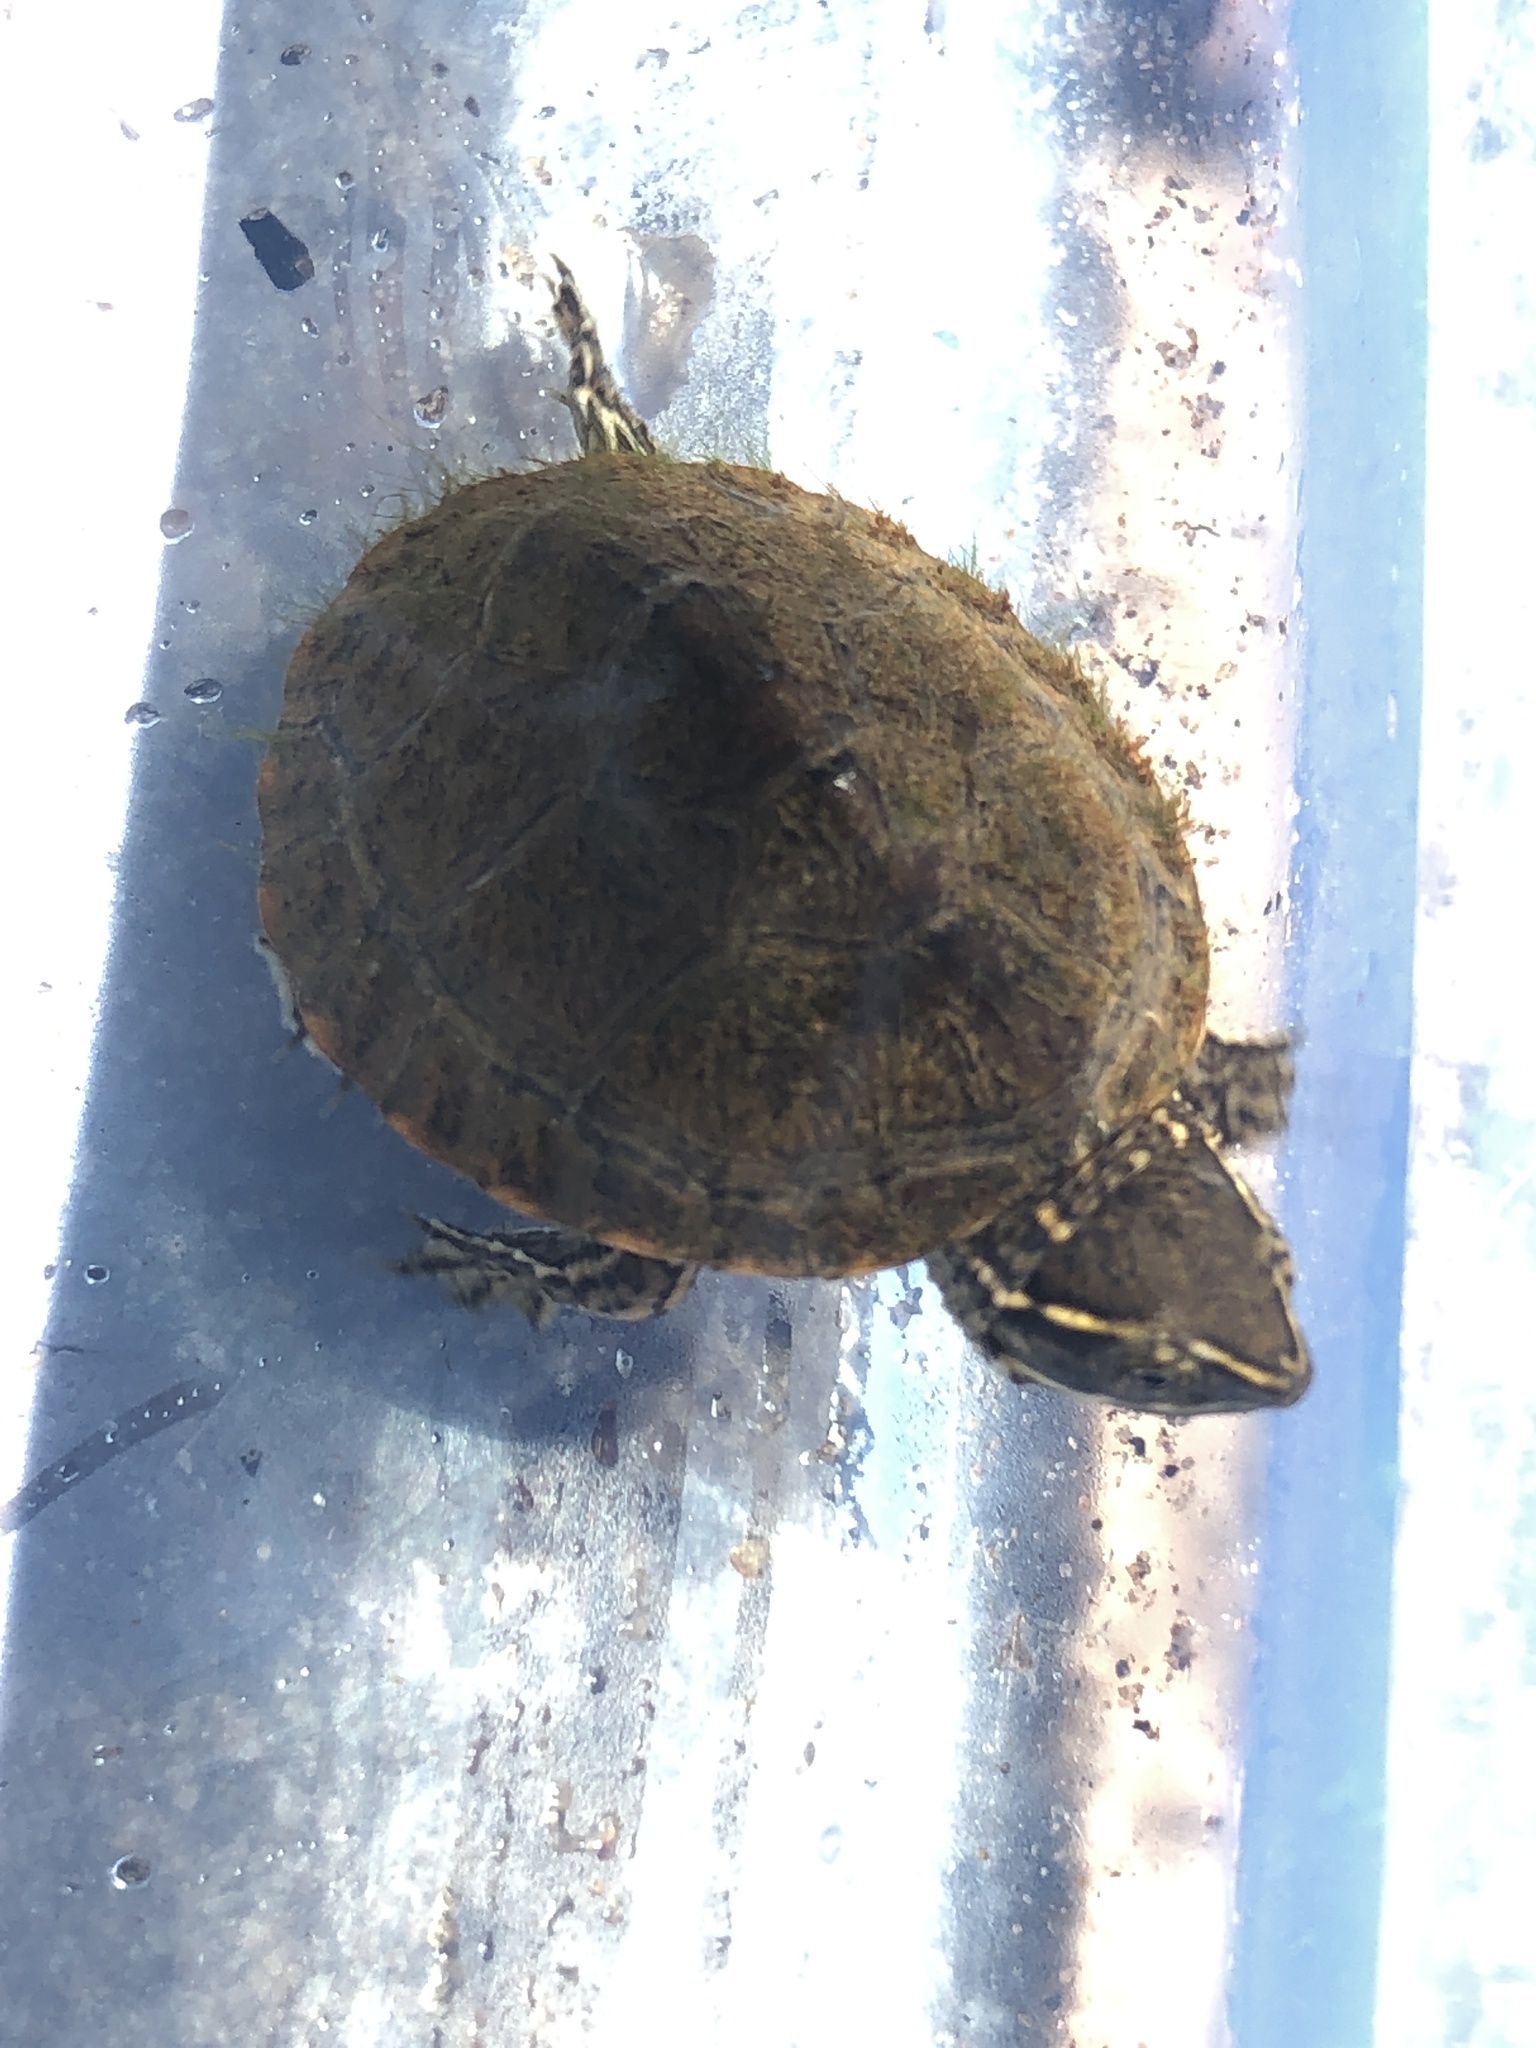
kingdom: Animalia
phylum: Chordata
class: Testudines
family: Kinosternidae
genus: Sternotherus
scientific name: Sternotherus odoratus
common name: Common musk turtle
